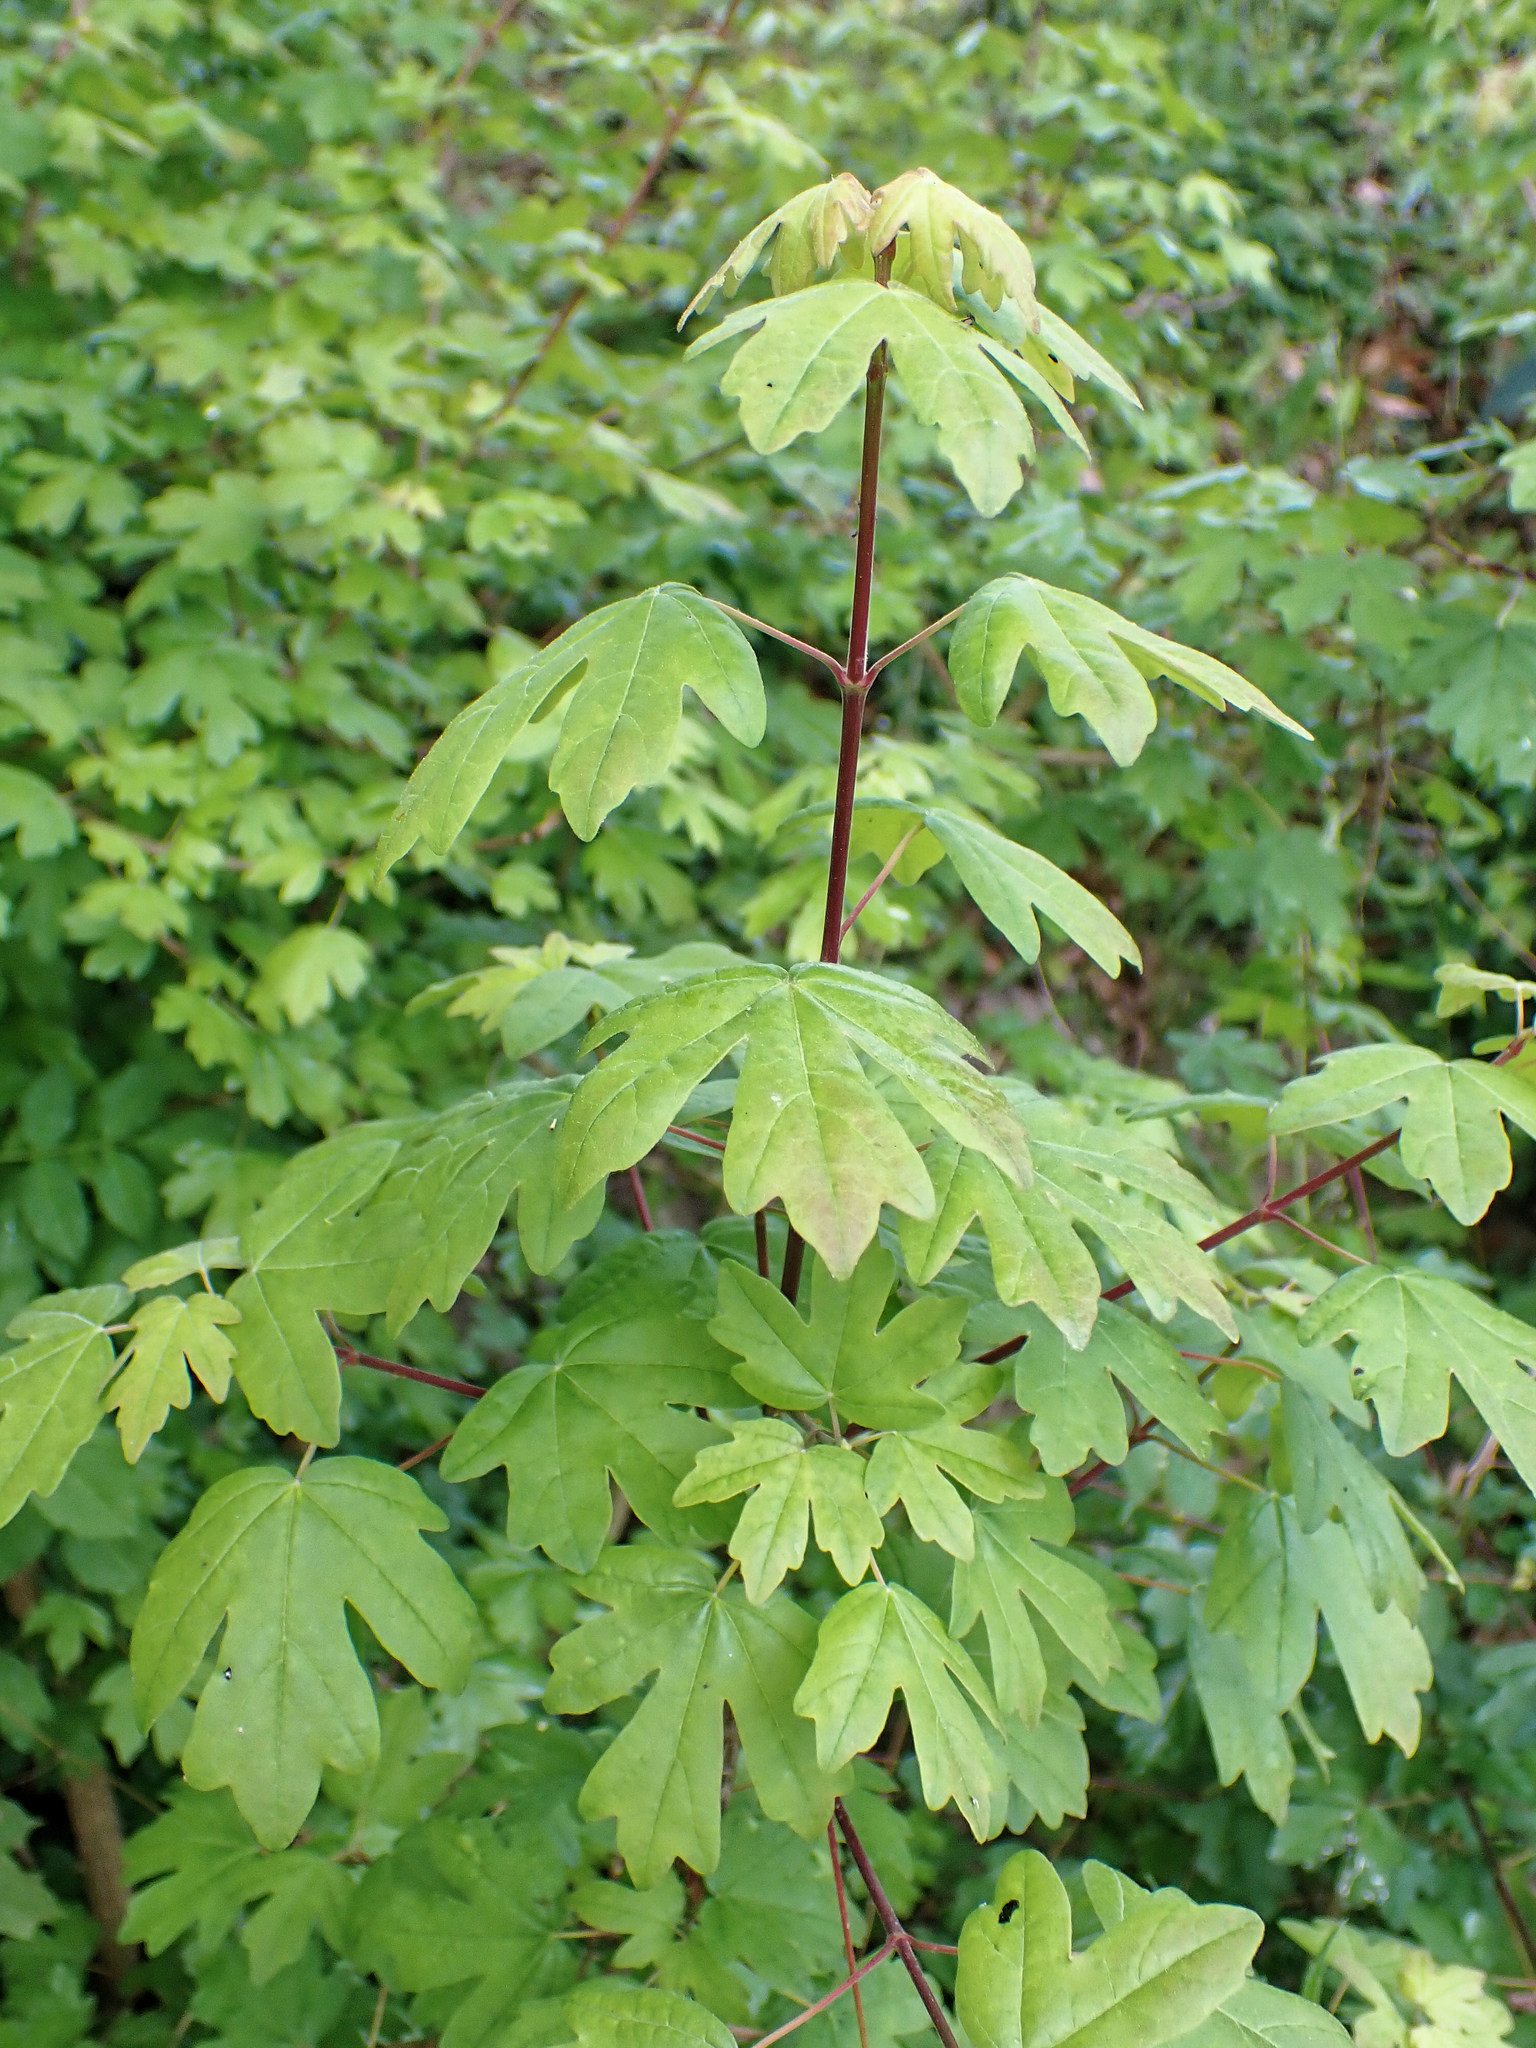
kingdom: Plantae
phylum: Tracheophyta
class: Magnoliopsida
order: Sapindales
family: Sapindaceae
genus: Acer
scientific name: Acer campestre
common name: Field maple
